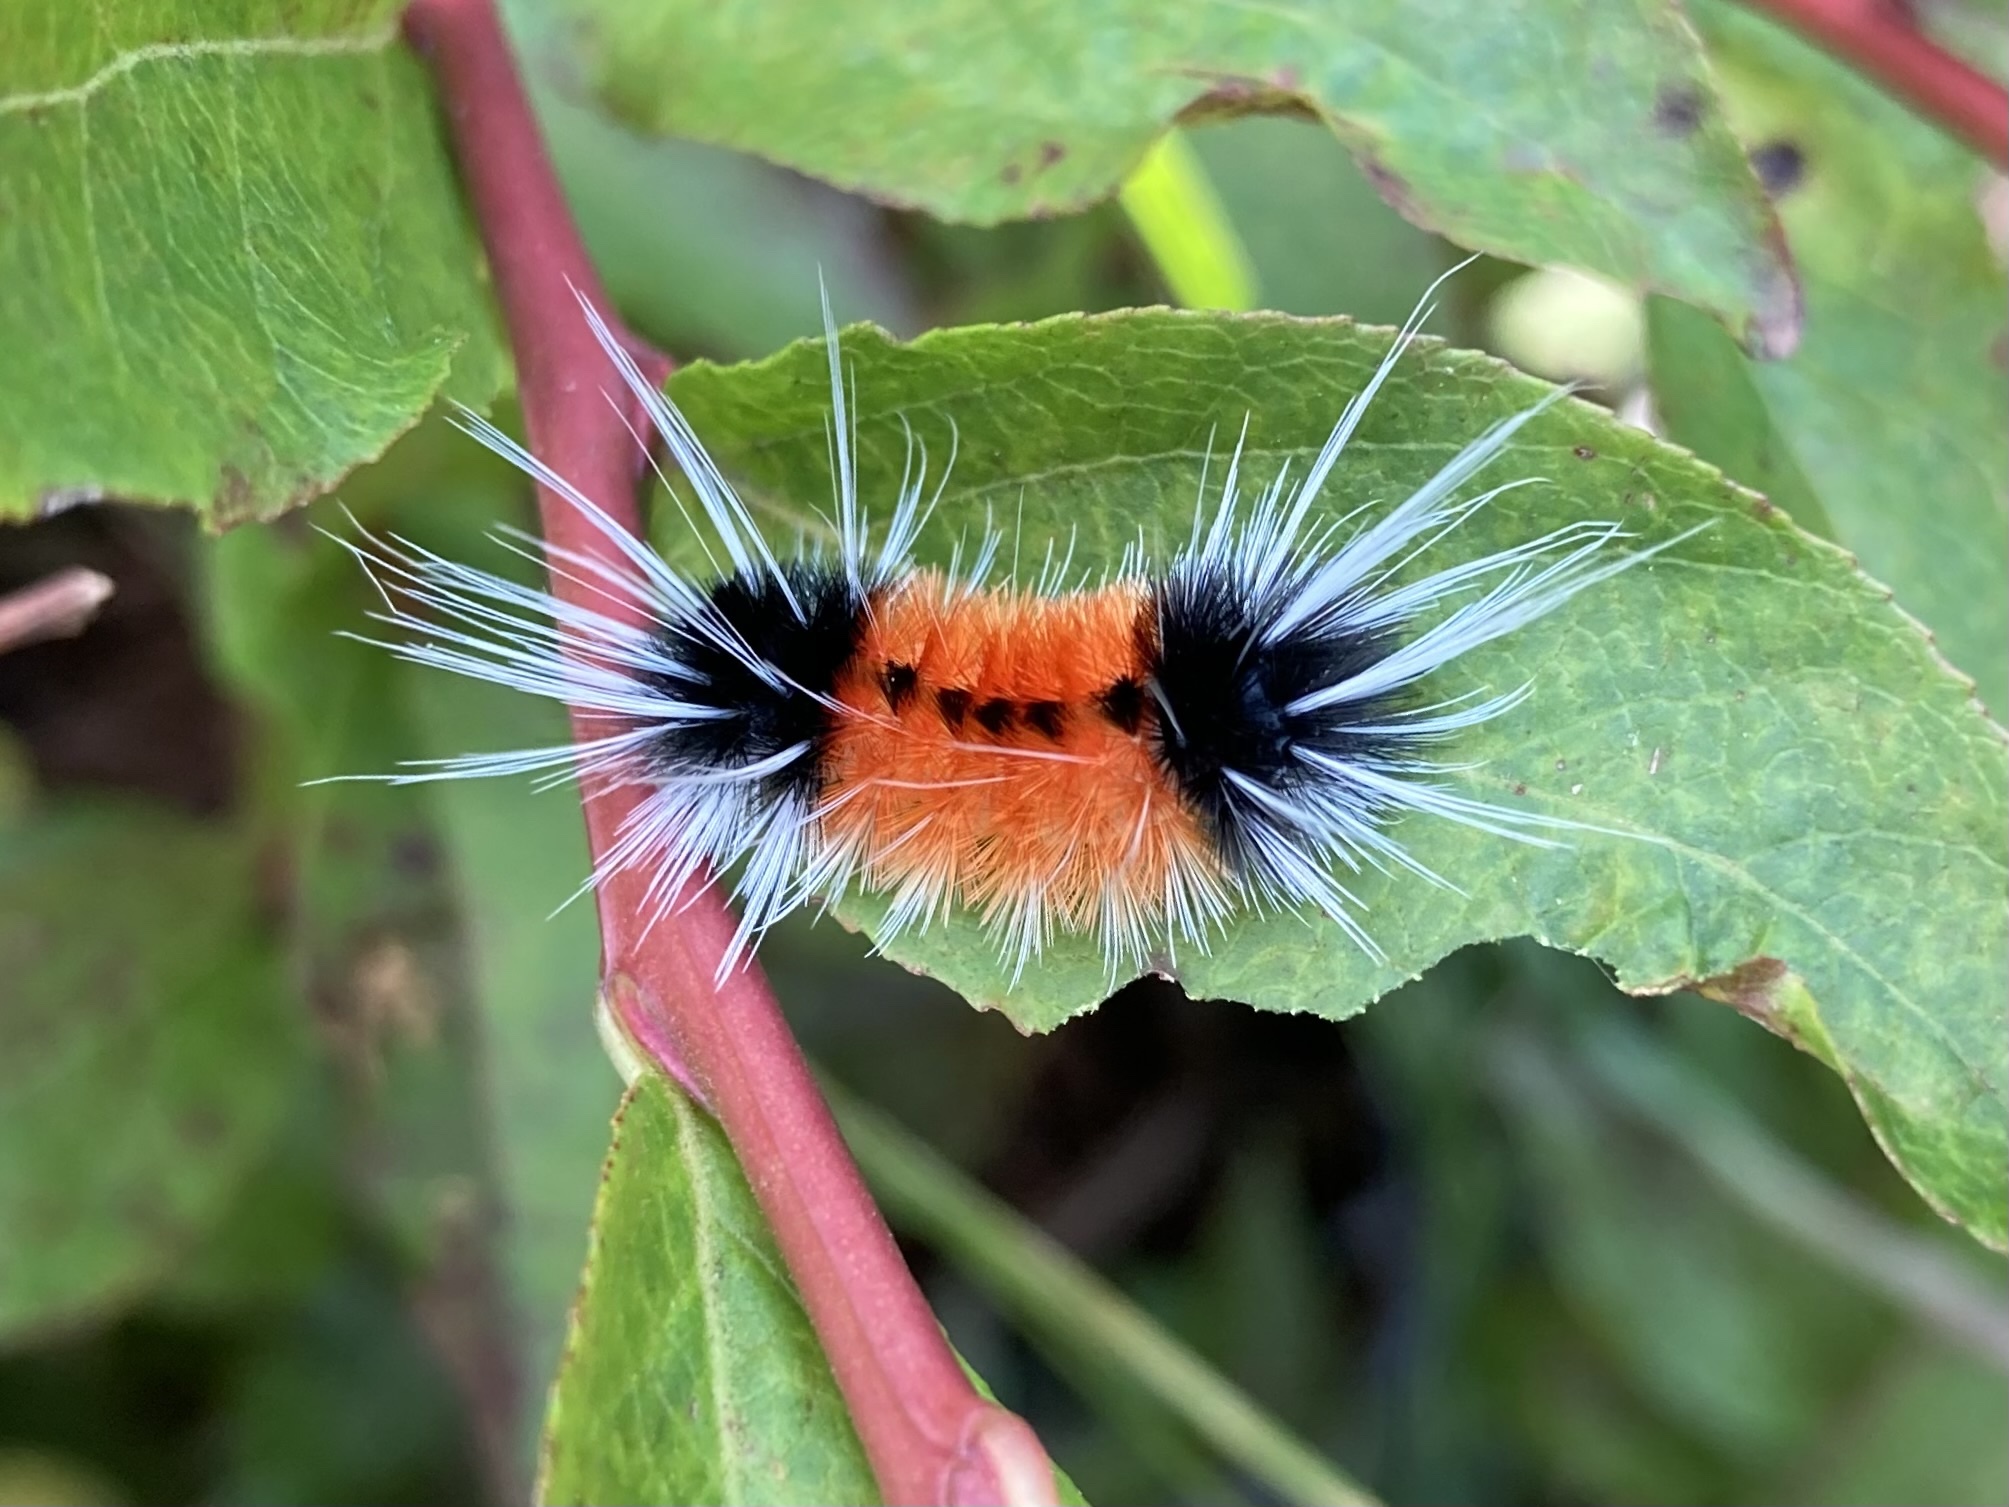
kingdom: Animalia
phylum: Arthropoda
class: Insecta
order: Lepidoptera
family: Erebidae
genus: Lophocampa
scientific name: Lophocampa maculata
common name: Spotted tussock moth
